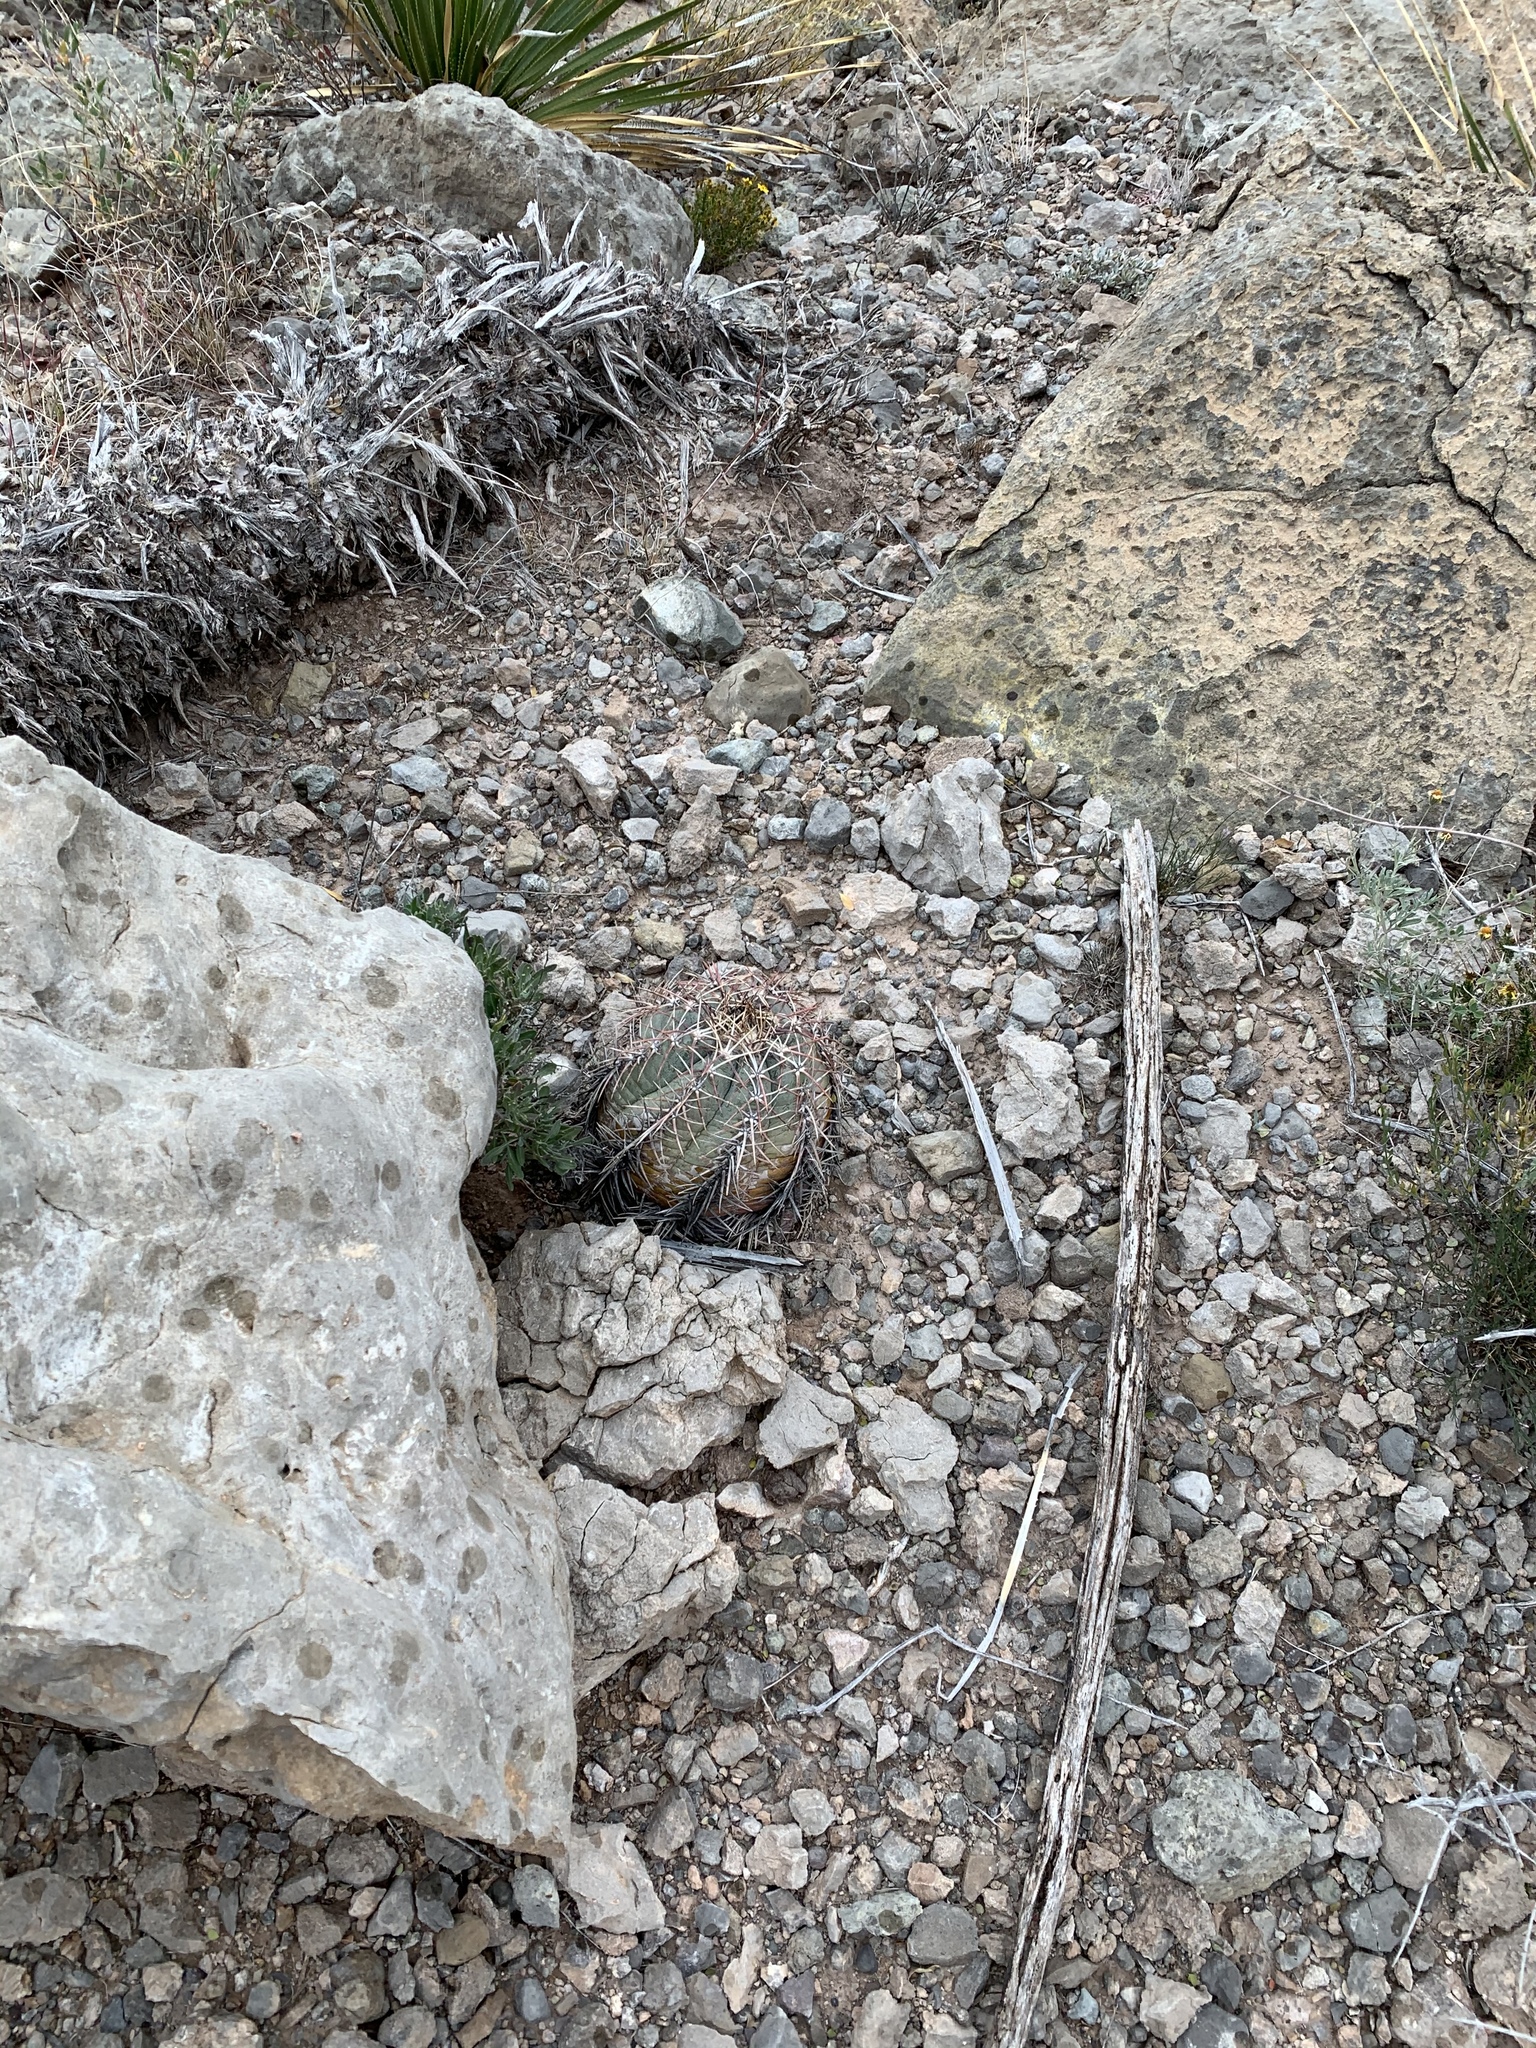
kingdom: Plantae
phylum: Tracheophyta
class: Magnoliopsida
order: Caryophyllales
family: Cactaceae
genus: Echinocactus
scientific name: Echinocactus horizonthalonius
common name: Devilshead
